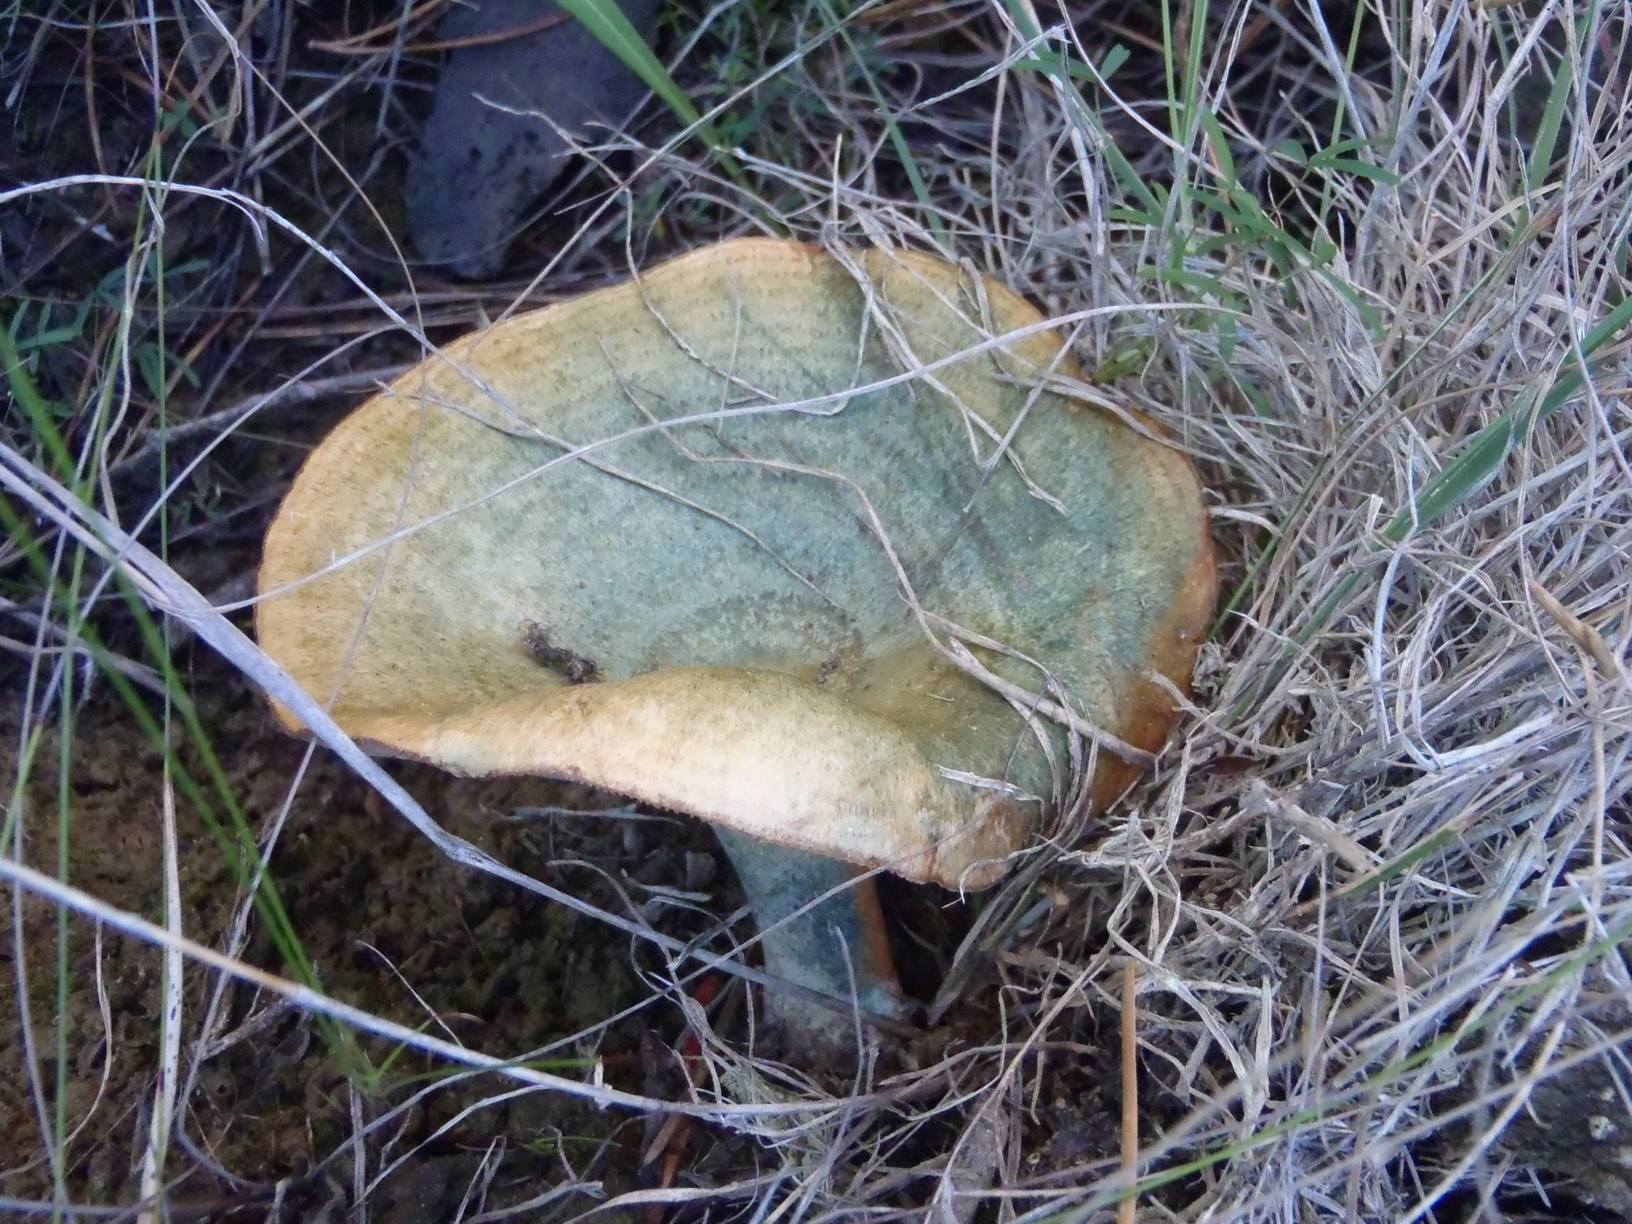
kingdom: Fungi
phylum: Basidiomycota
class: Agaricomycetes
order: Russulales
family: Russulaceae
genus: Lactarius
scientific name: Lactarius deliciosus
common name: Saffron milk-cap
